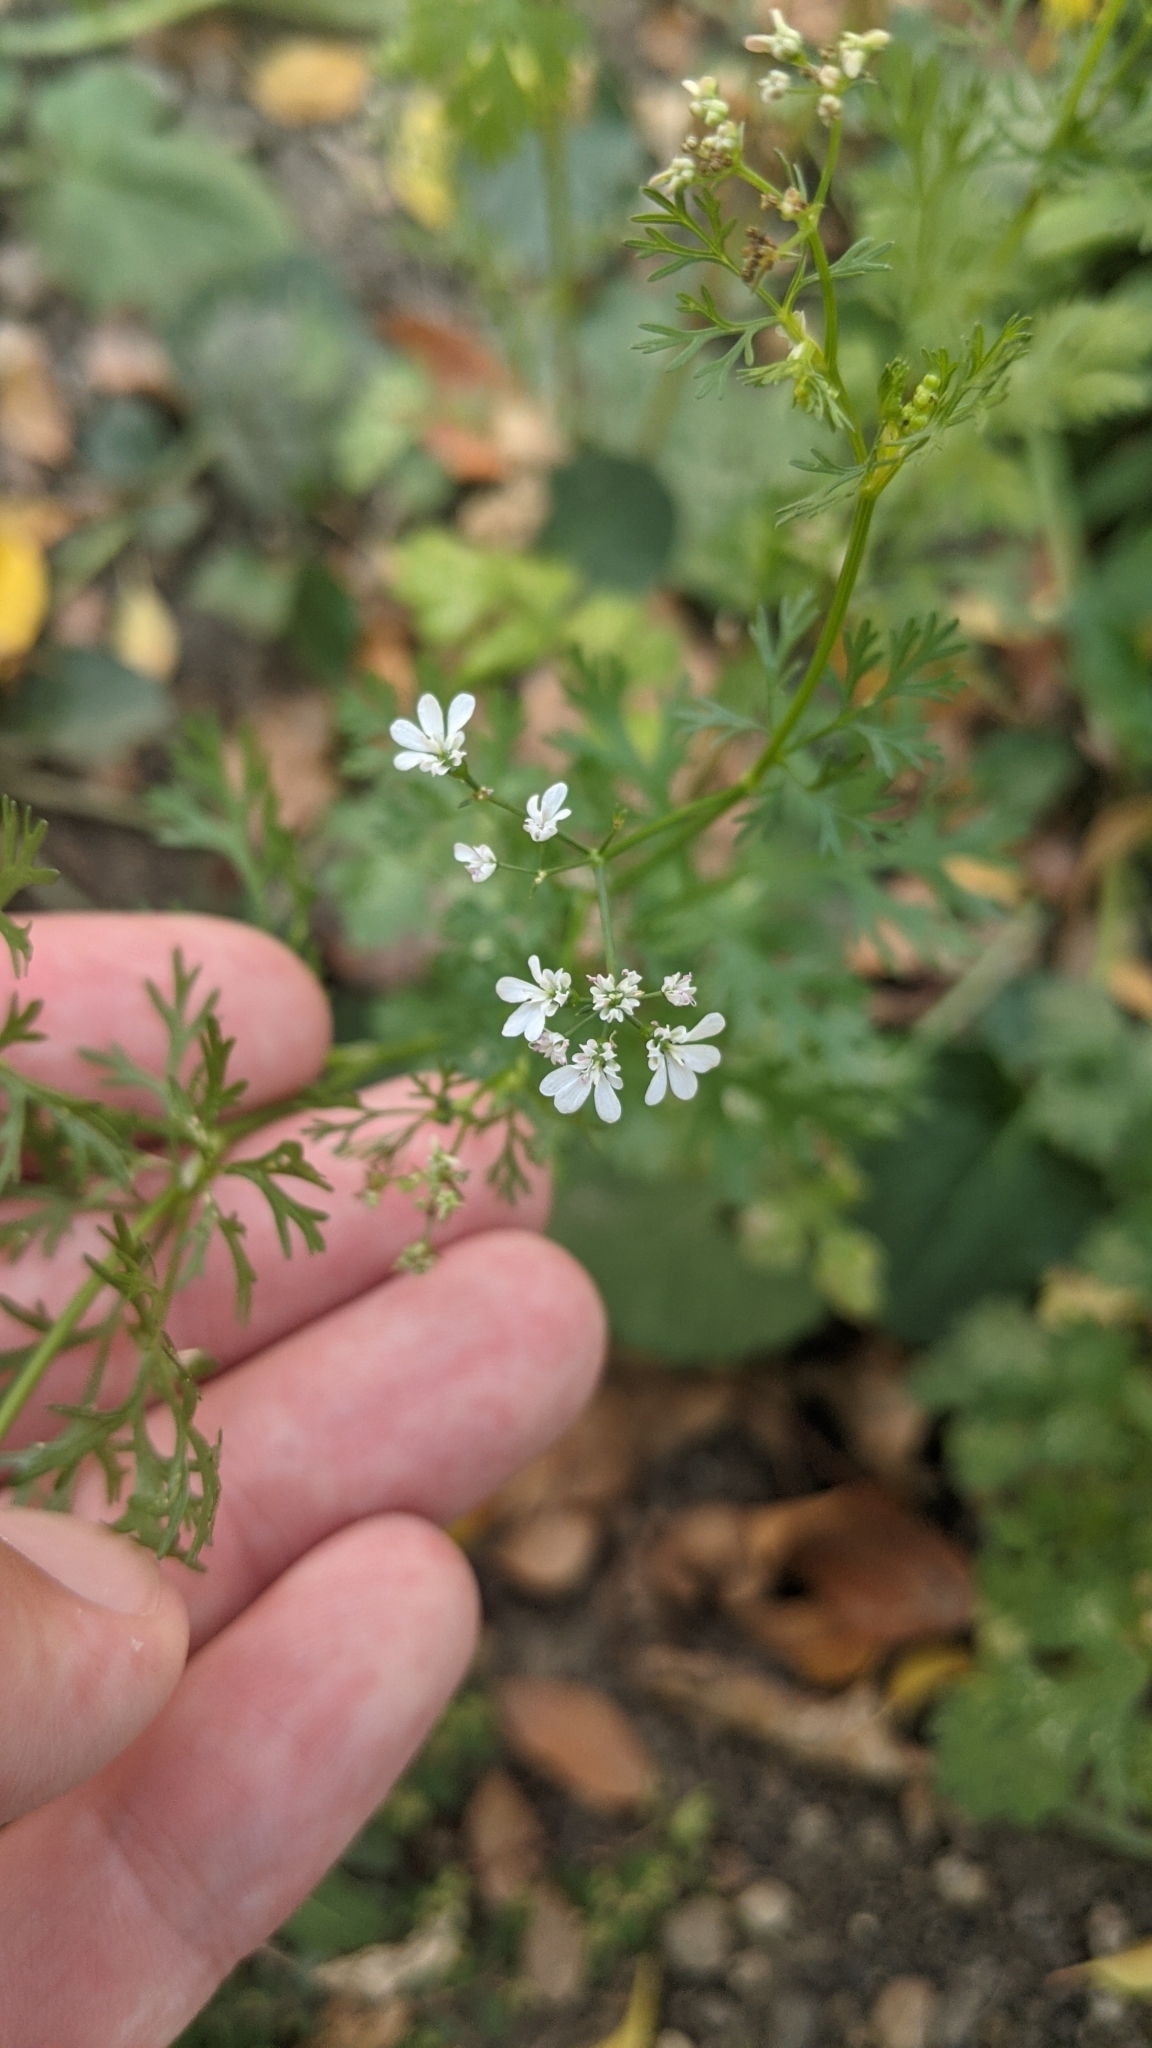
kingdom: Plantae
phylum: Tracheophyta
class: Magnoliopsida
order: Apiales
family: Apiaceae
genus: Coriandrum
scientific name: Coriandrum sativum
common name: Coriander
